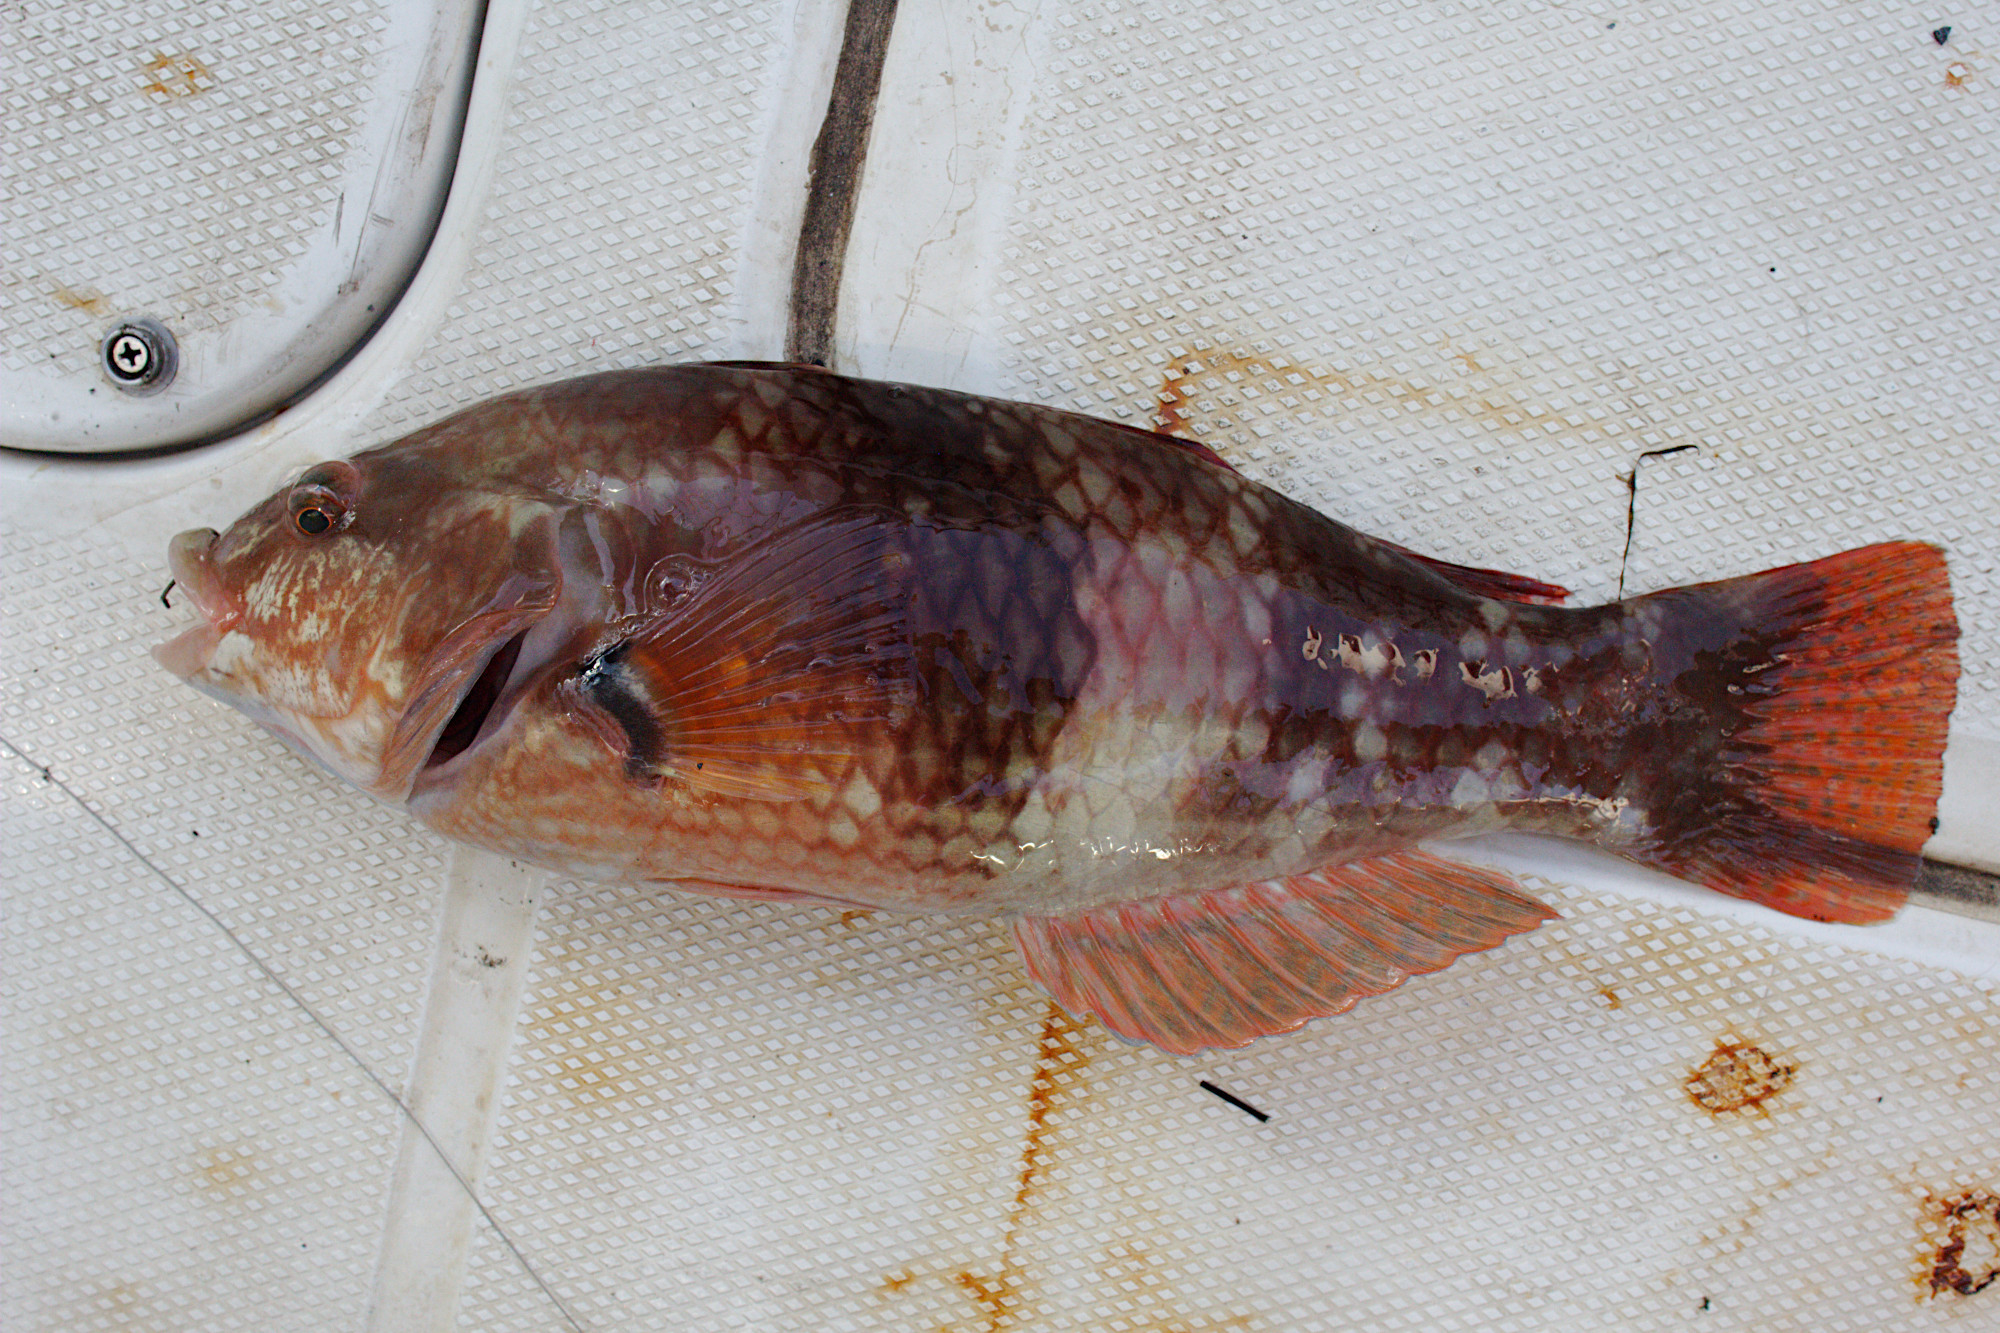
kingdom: Animalia
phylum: Chordata
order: Perciformes
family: Labridae
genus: Notolabrus
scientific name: Notolabrus tetricus
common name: Blue-throated parrotfish
